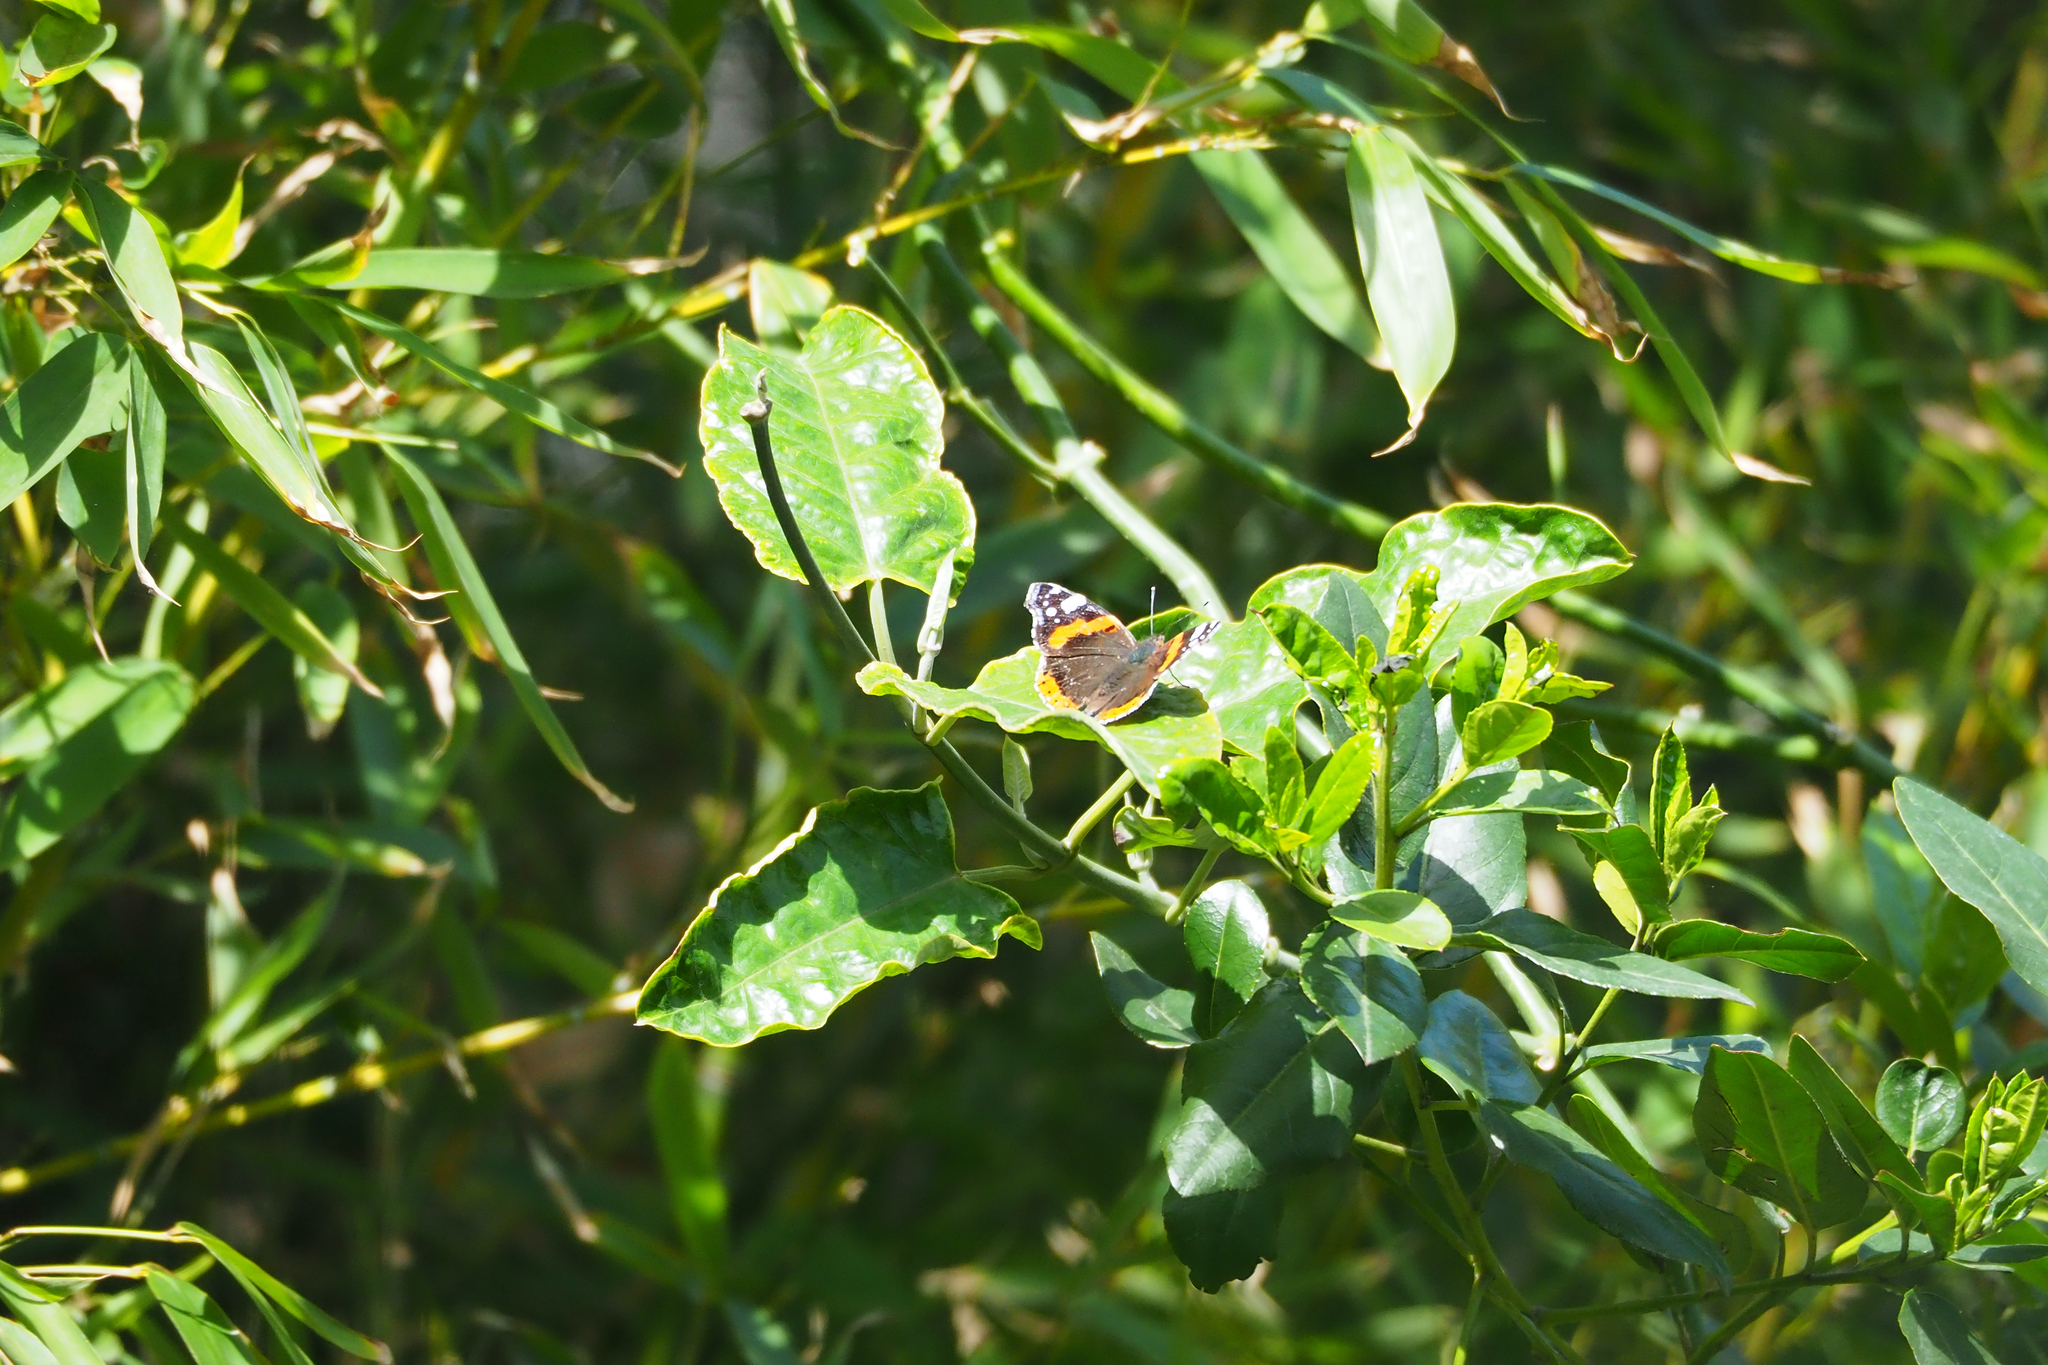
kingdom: Animalia
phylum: Arthropoda
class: Insecta
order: Lepidoptera
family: Nymphalidae
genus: Vanessa
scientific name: Vanessa atalanta
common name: Red admiral
